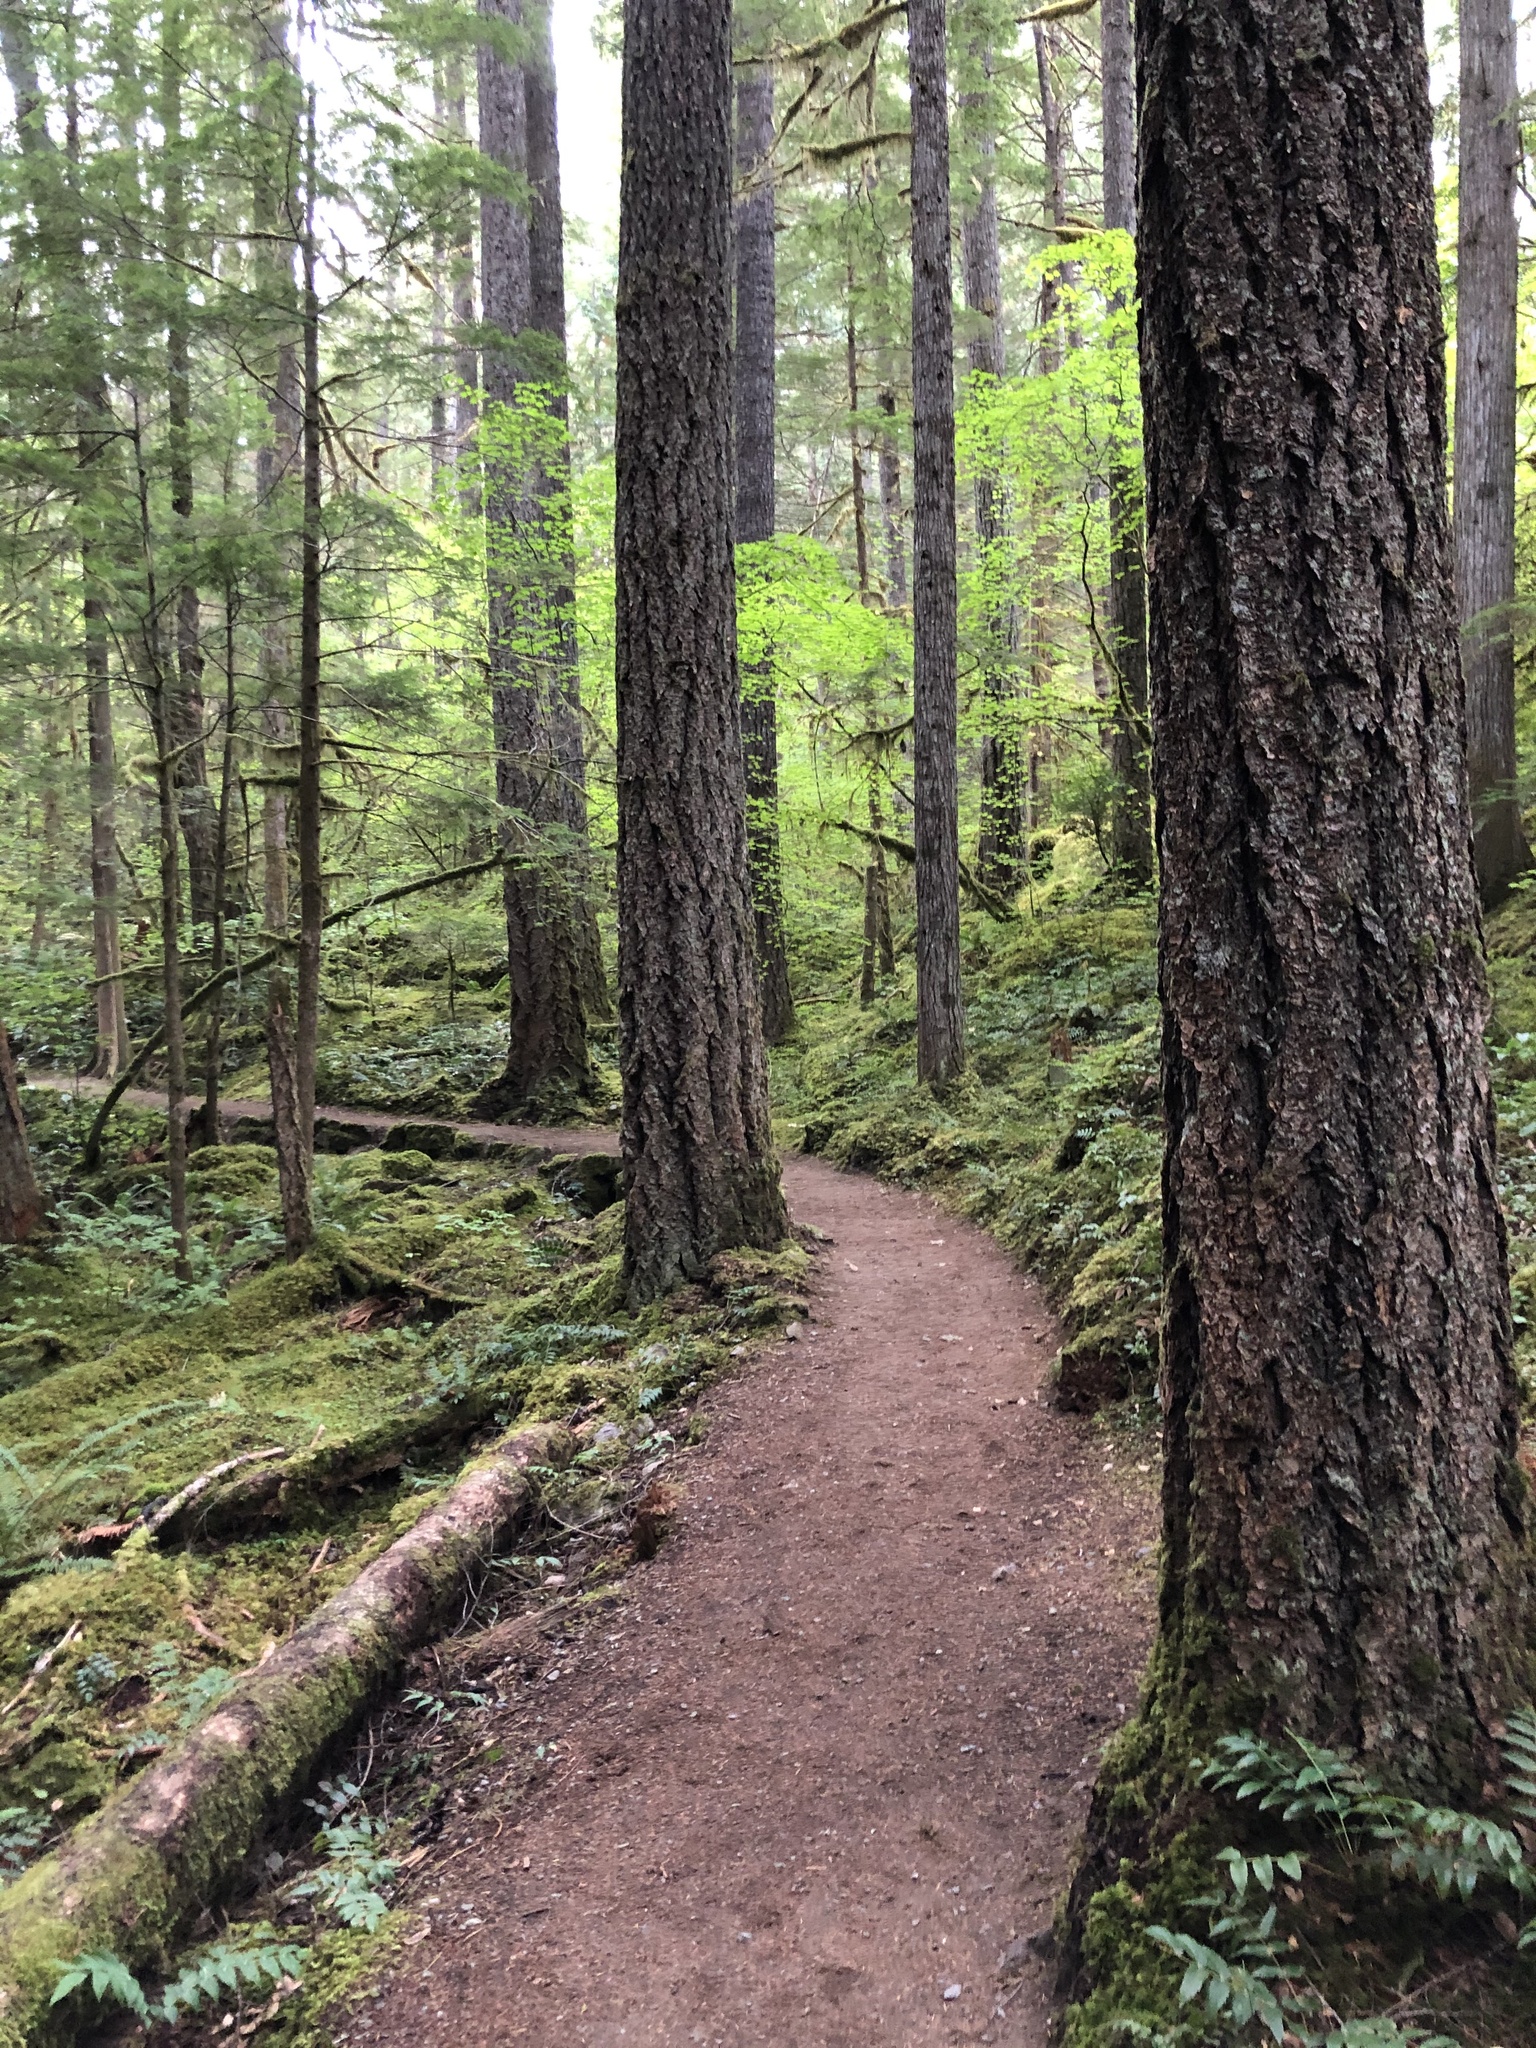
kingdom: Plantae
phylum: Tracheophyta
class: Pinopsida
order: Pinales
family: Pinaceae
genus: Pseudotsuga
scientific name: Pseudotsuga menziesii
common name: Douglas fir
